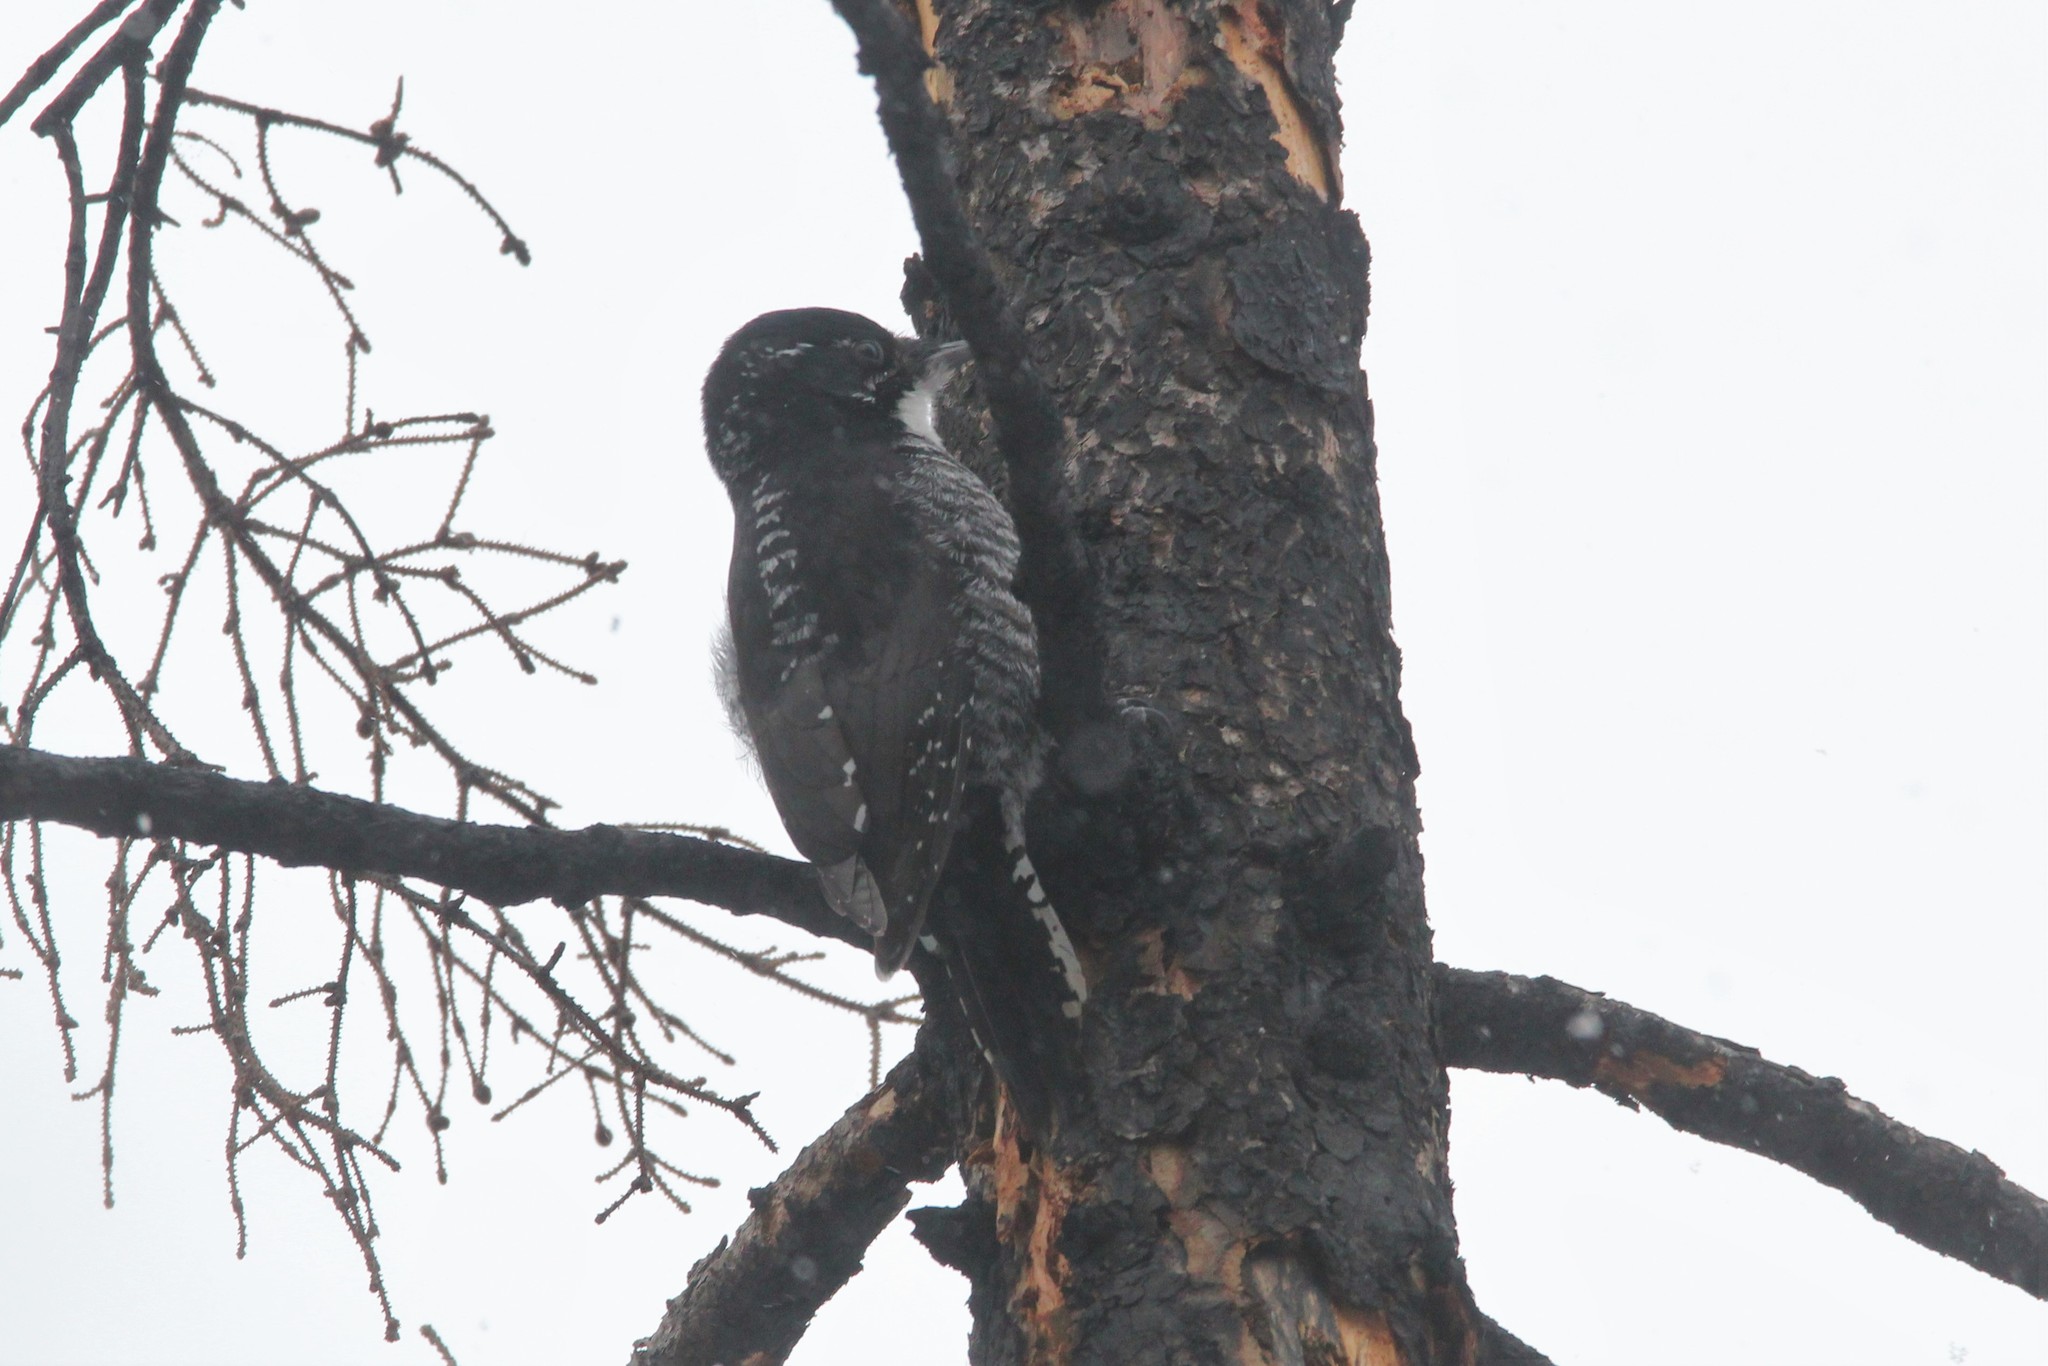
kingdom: Animalia
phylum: Chordata
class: Aves
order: Piciformes
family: Picidae
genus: Picoides
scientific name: Picoides dorsalis
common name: American three-toed woodpecker
